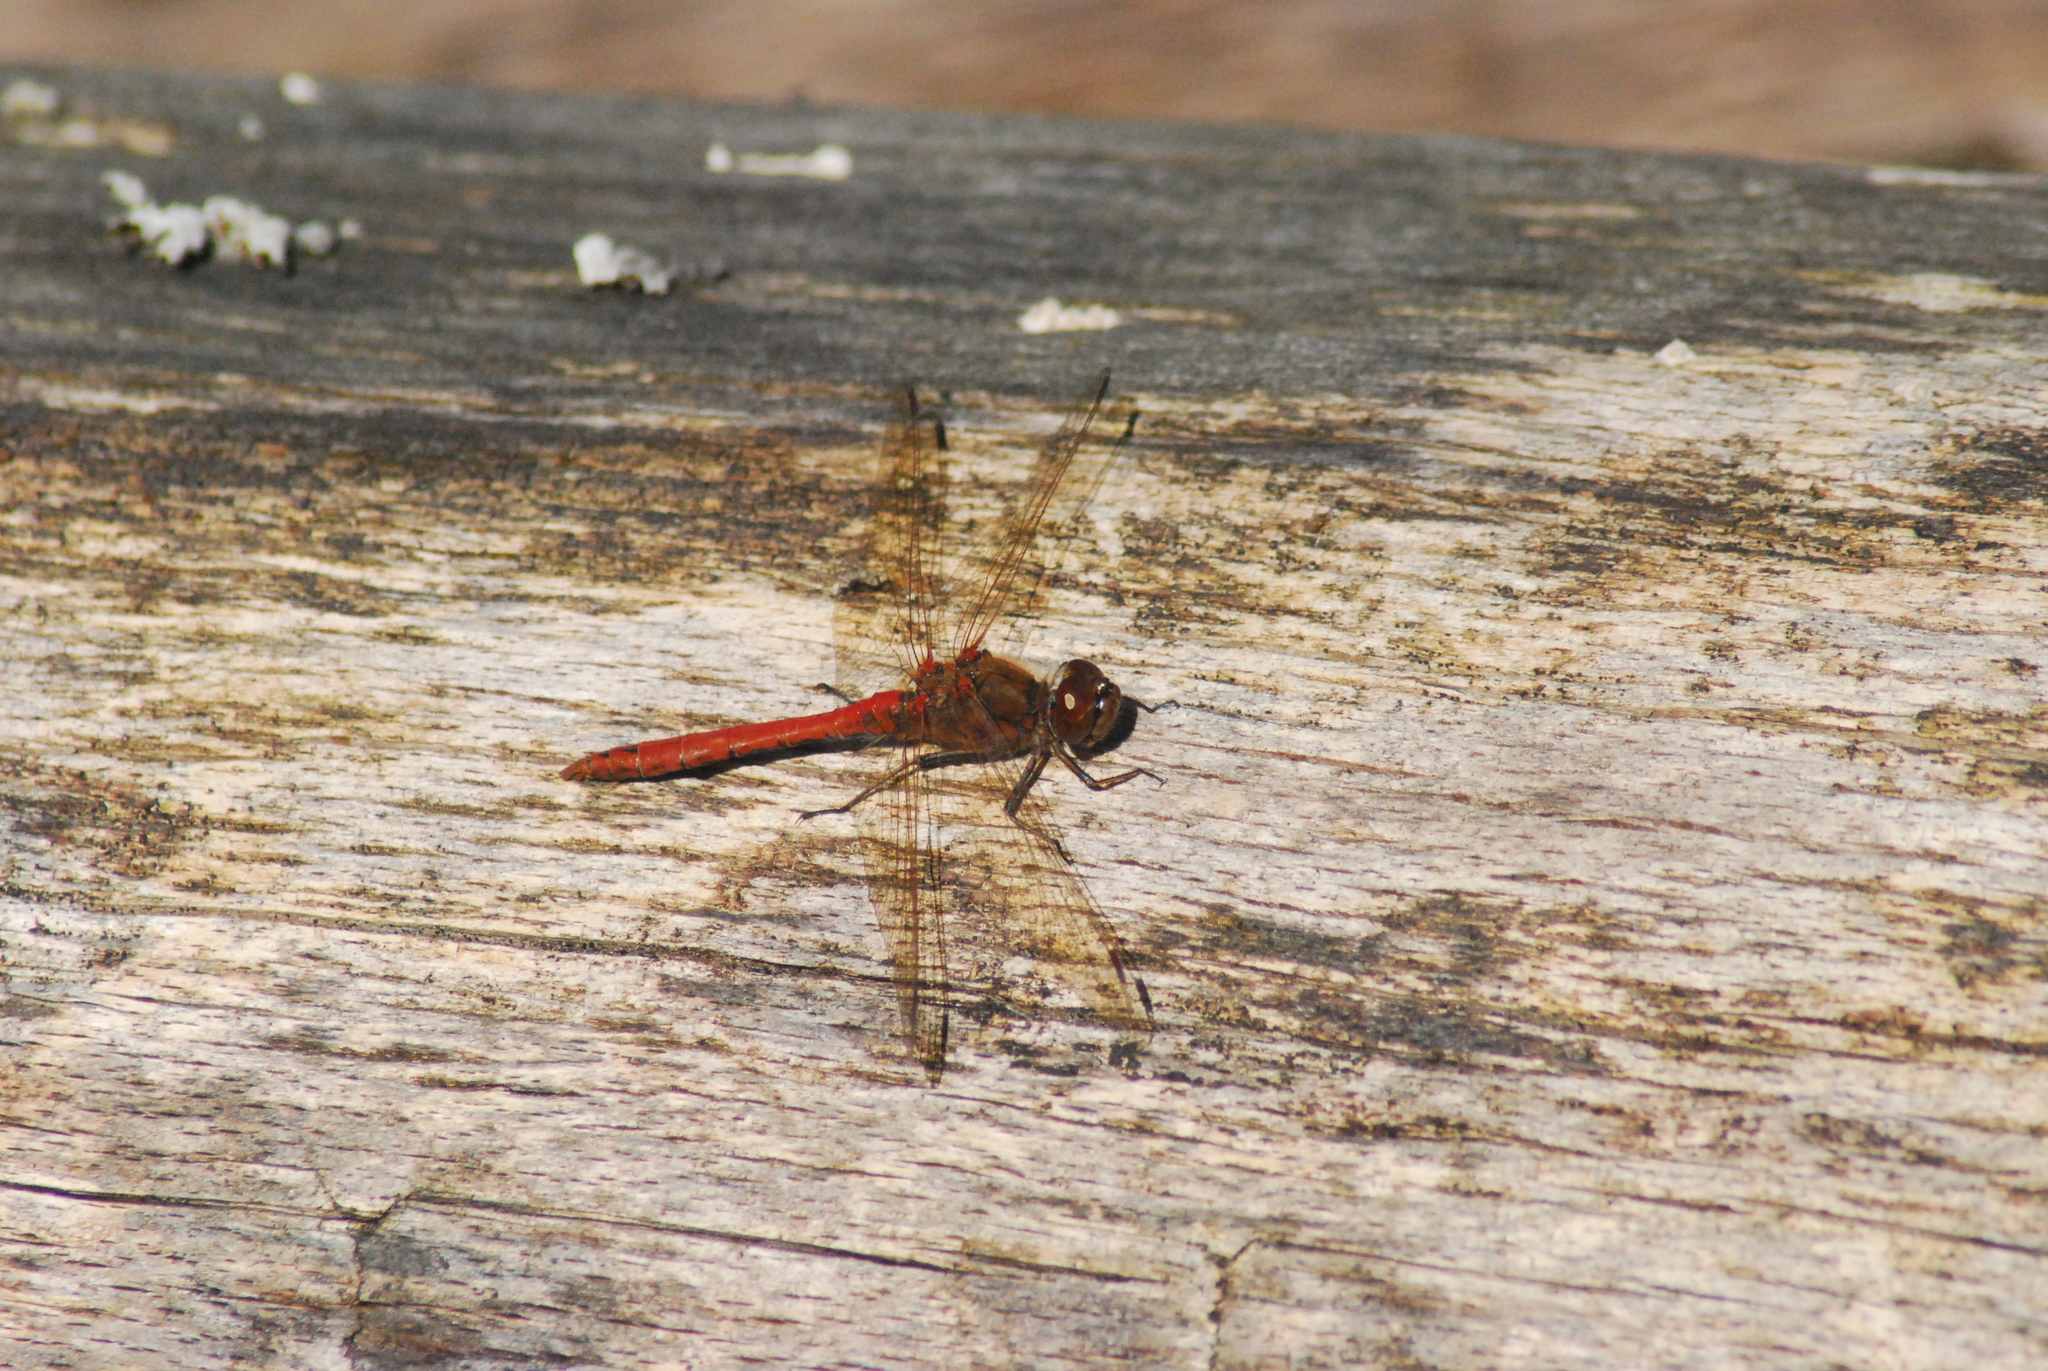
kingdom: Animalia
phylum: Arthropoda
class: Insecta
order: Odonata
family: Libellulidae
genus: Sympetrum
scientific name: Sympetrum vulgatum
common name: Vagrant darter
